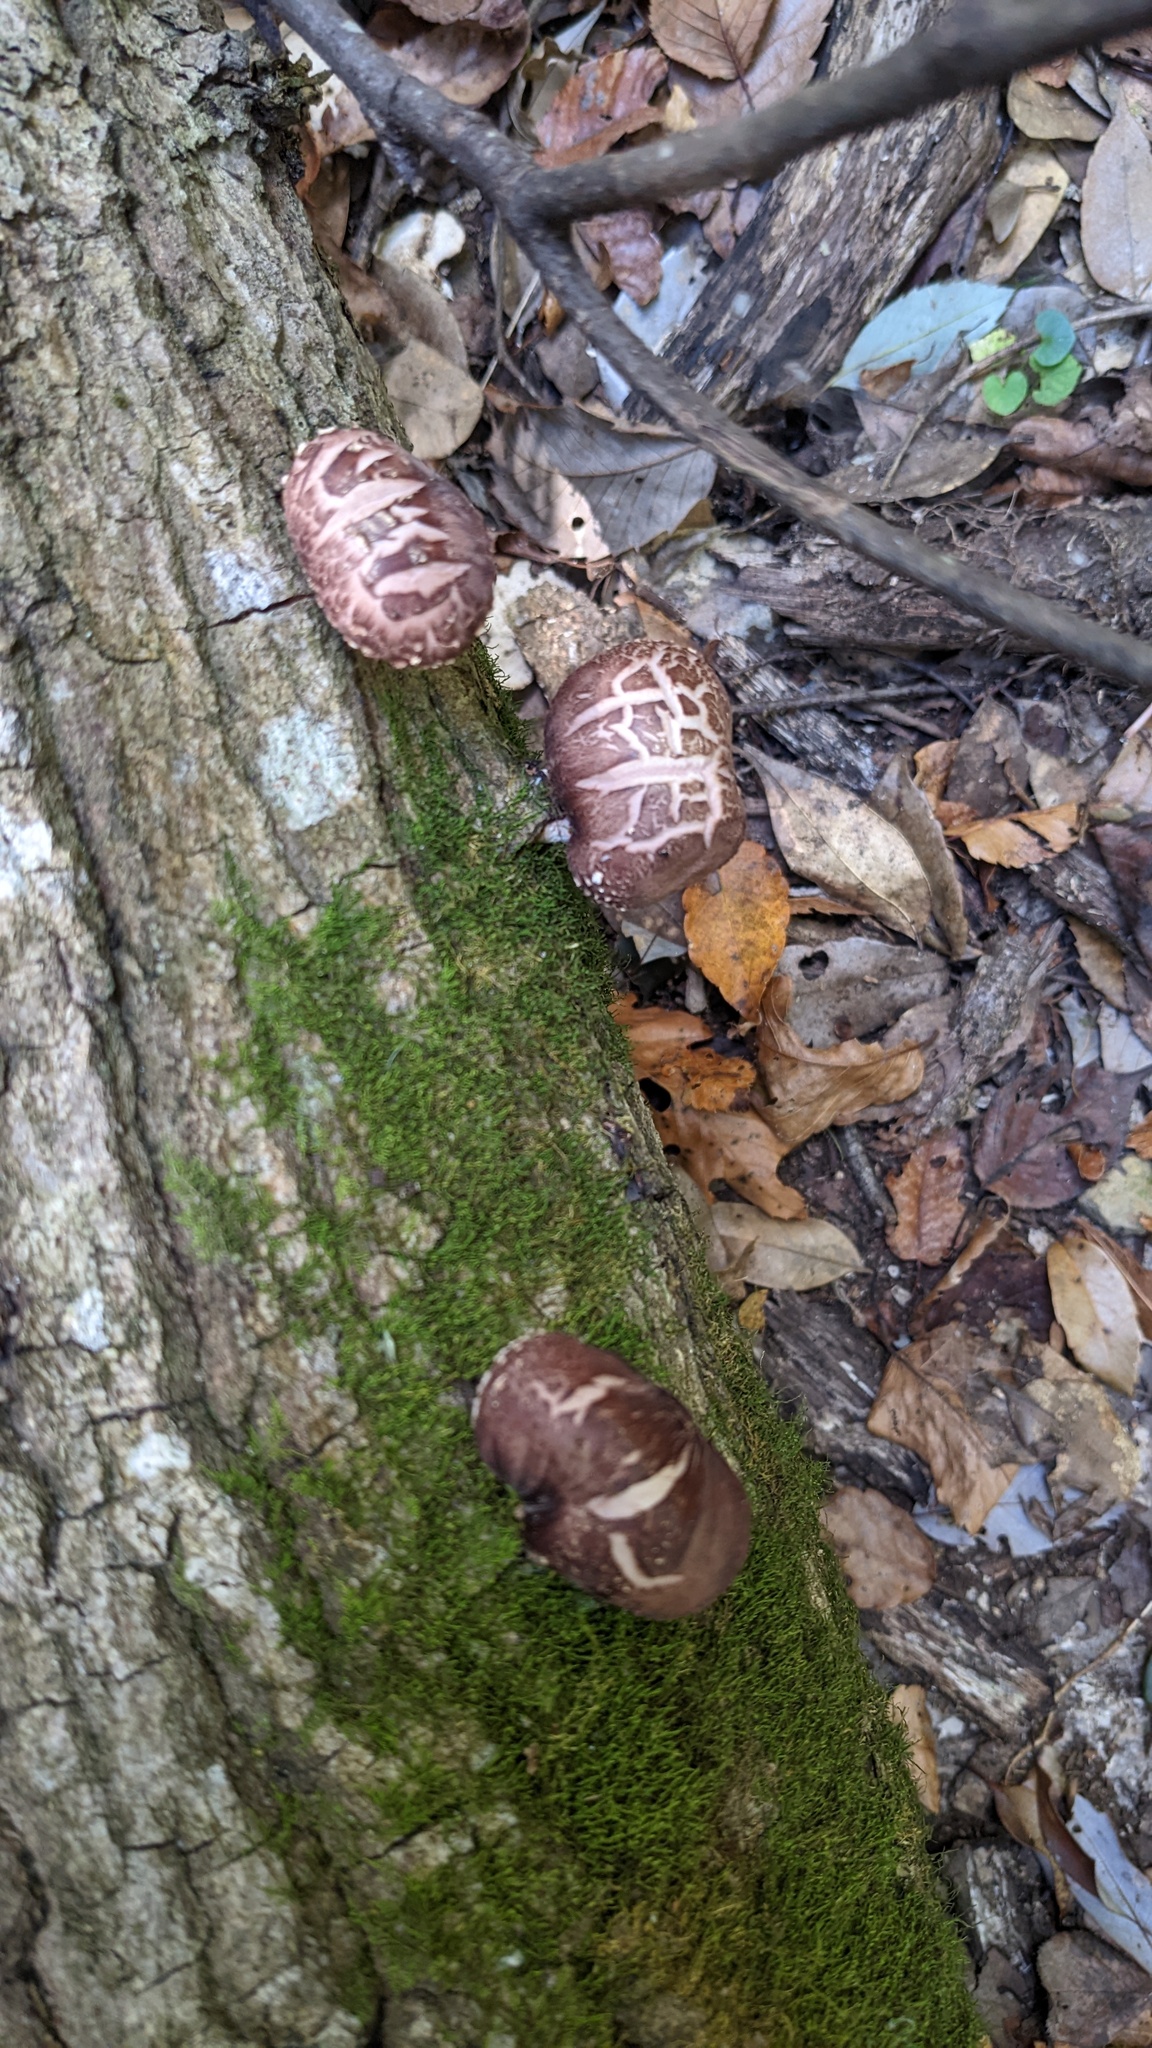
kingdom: Fungi
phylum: Basidiomycota
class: Agaricomycetes
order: Agaricales
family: Omphalotaceae
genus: Lentinula
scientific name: Lentinula edodes
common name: Shiitake
